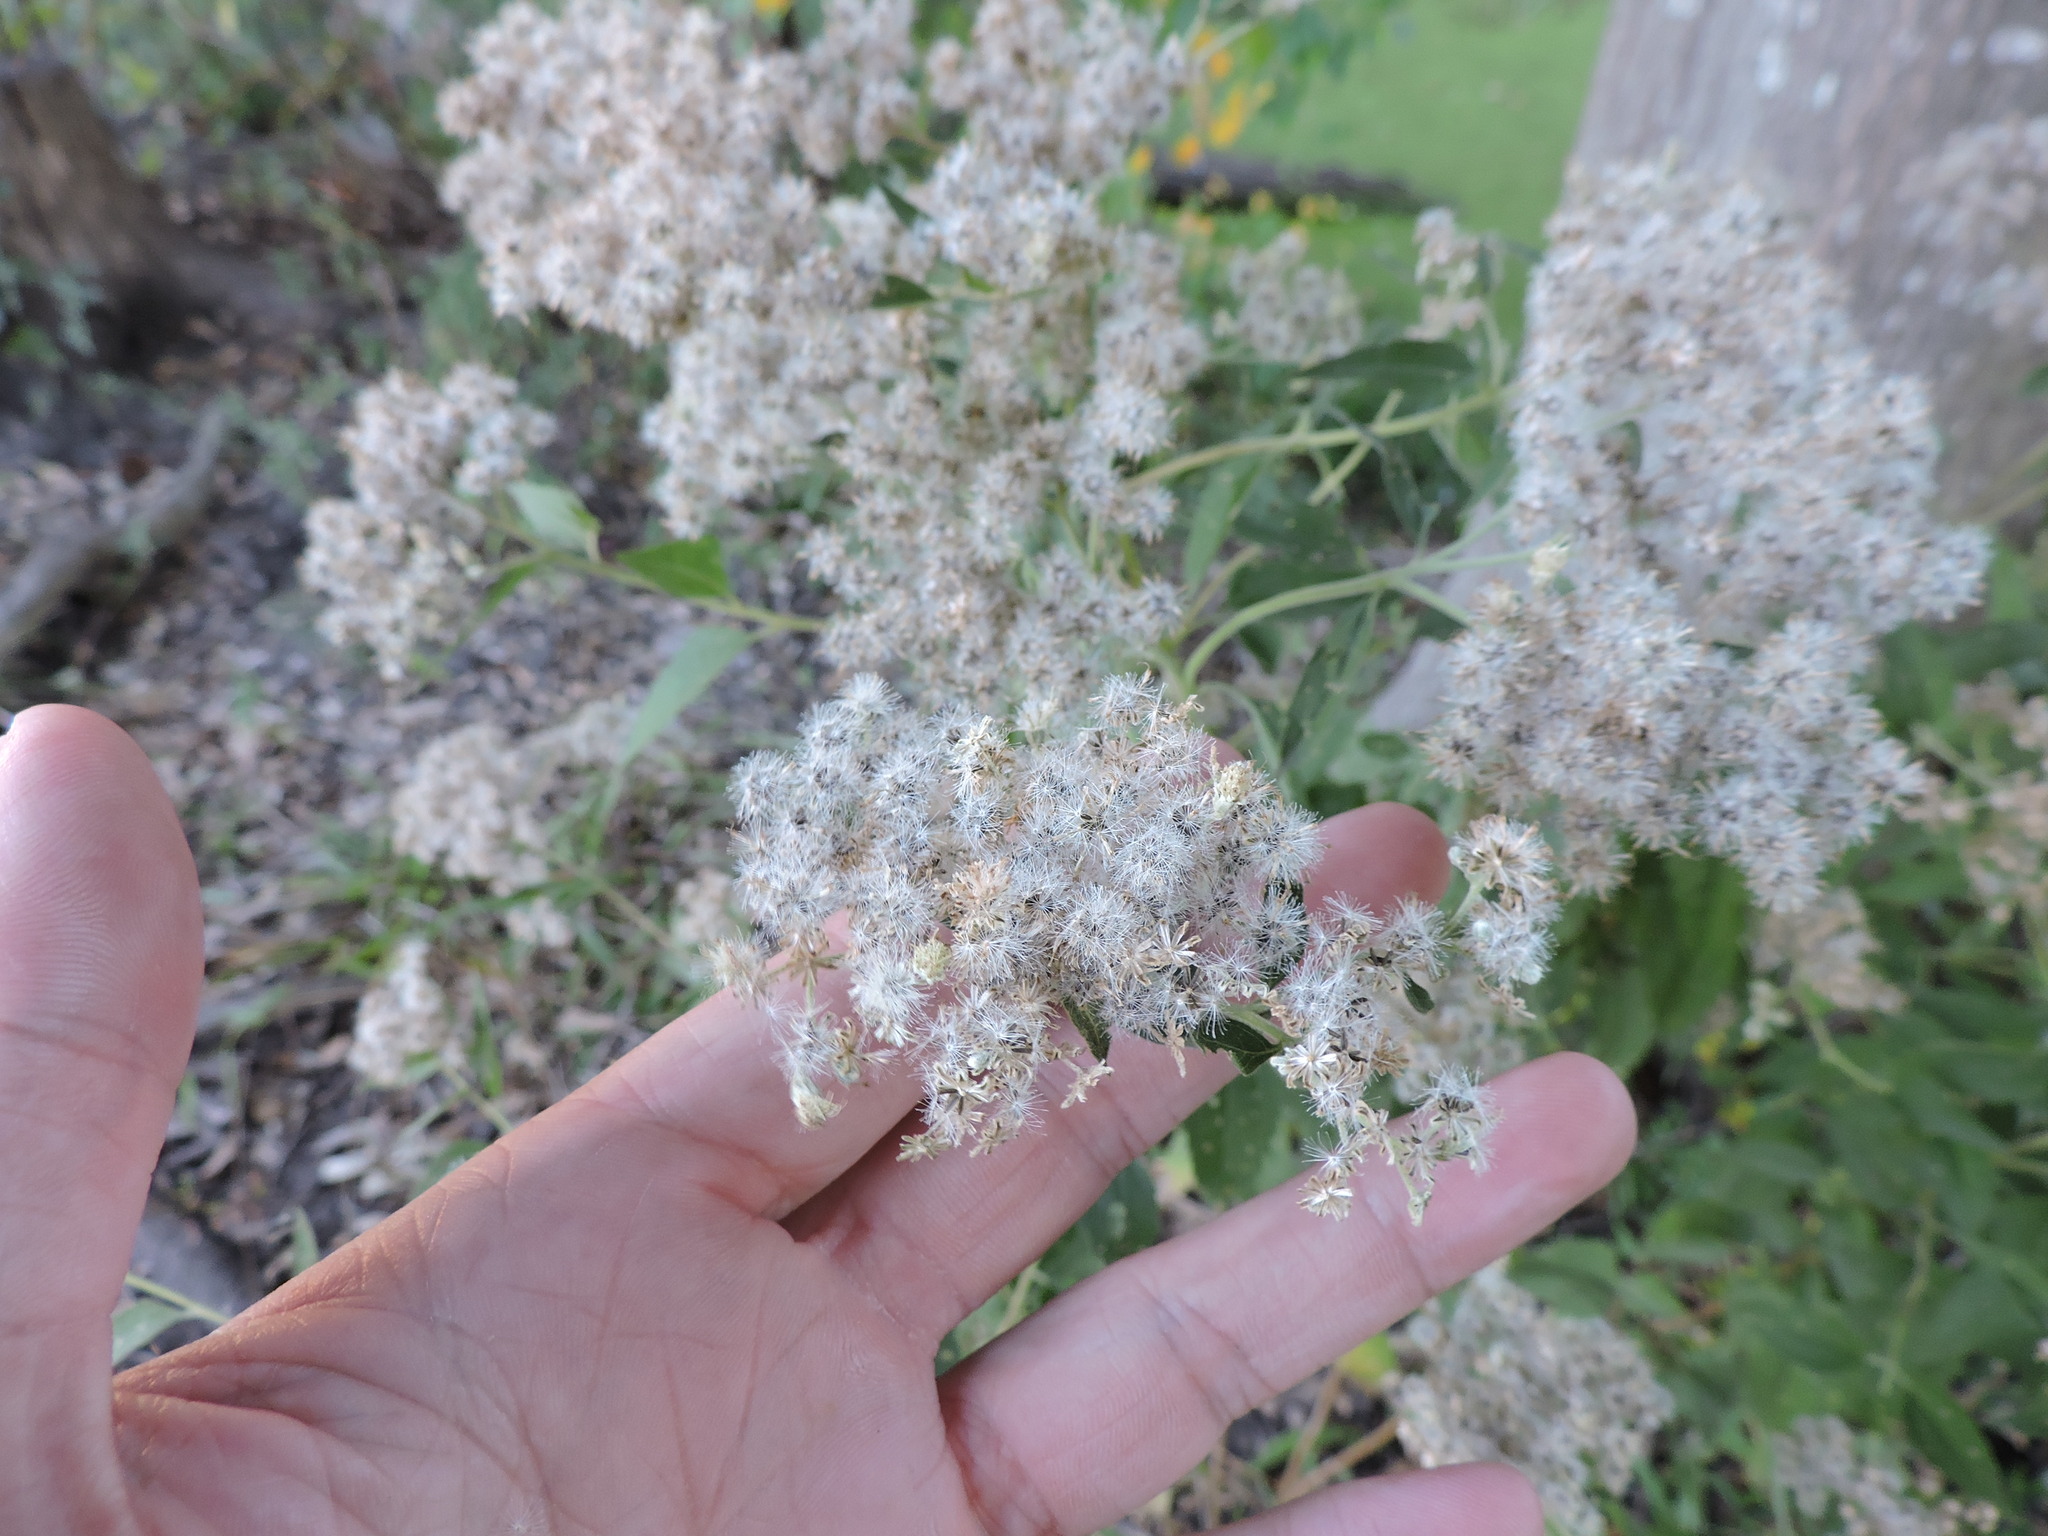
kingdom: Plantae
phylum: Tracheophyta
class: Magnoliopsida
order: Asterales
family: Asteraceae
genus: Eupatorium
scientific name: Eupatorium serotinum
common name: Late boneset
